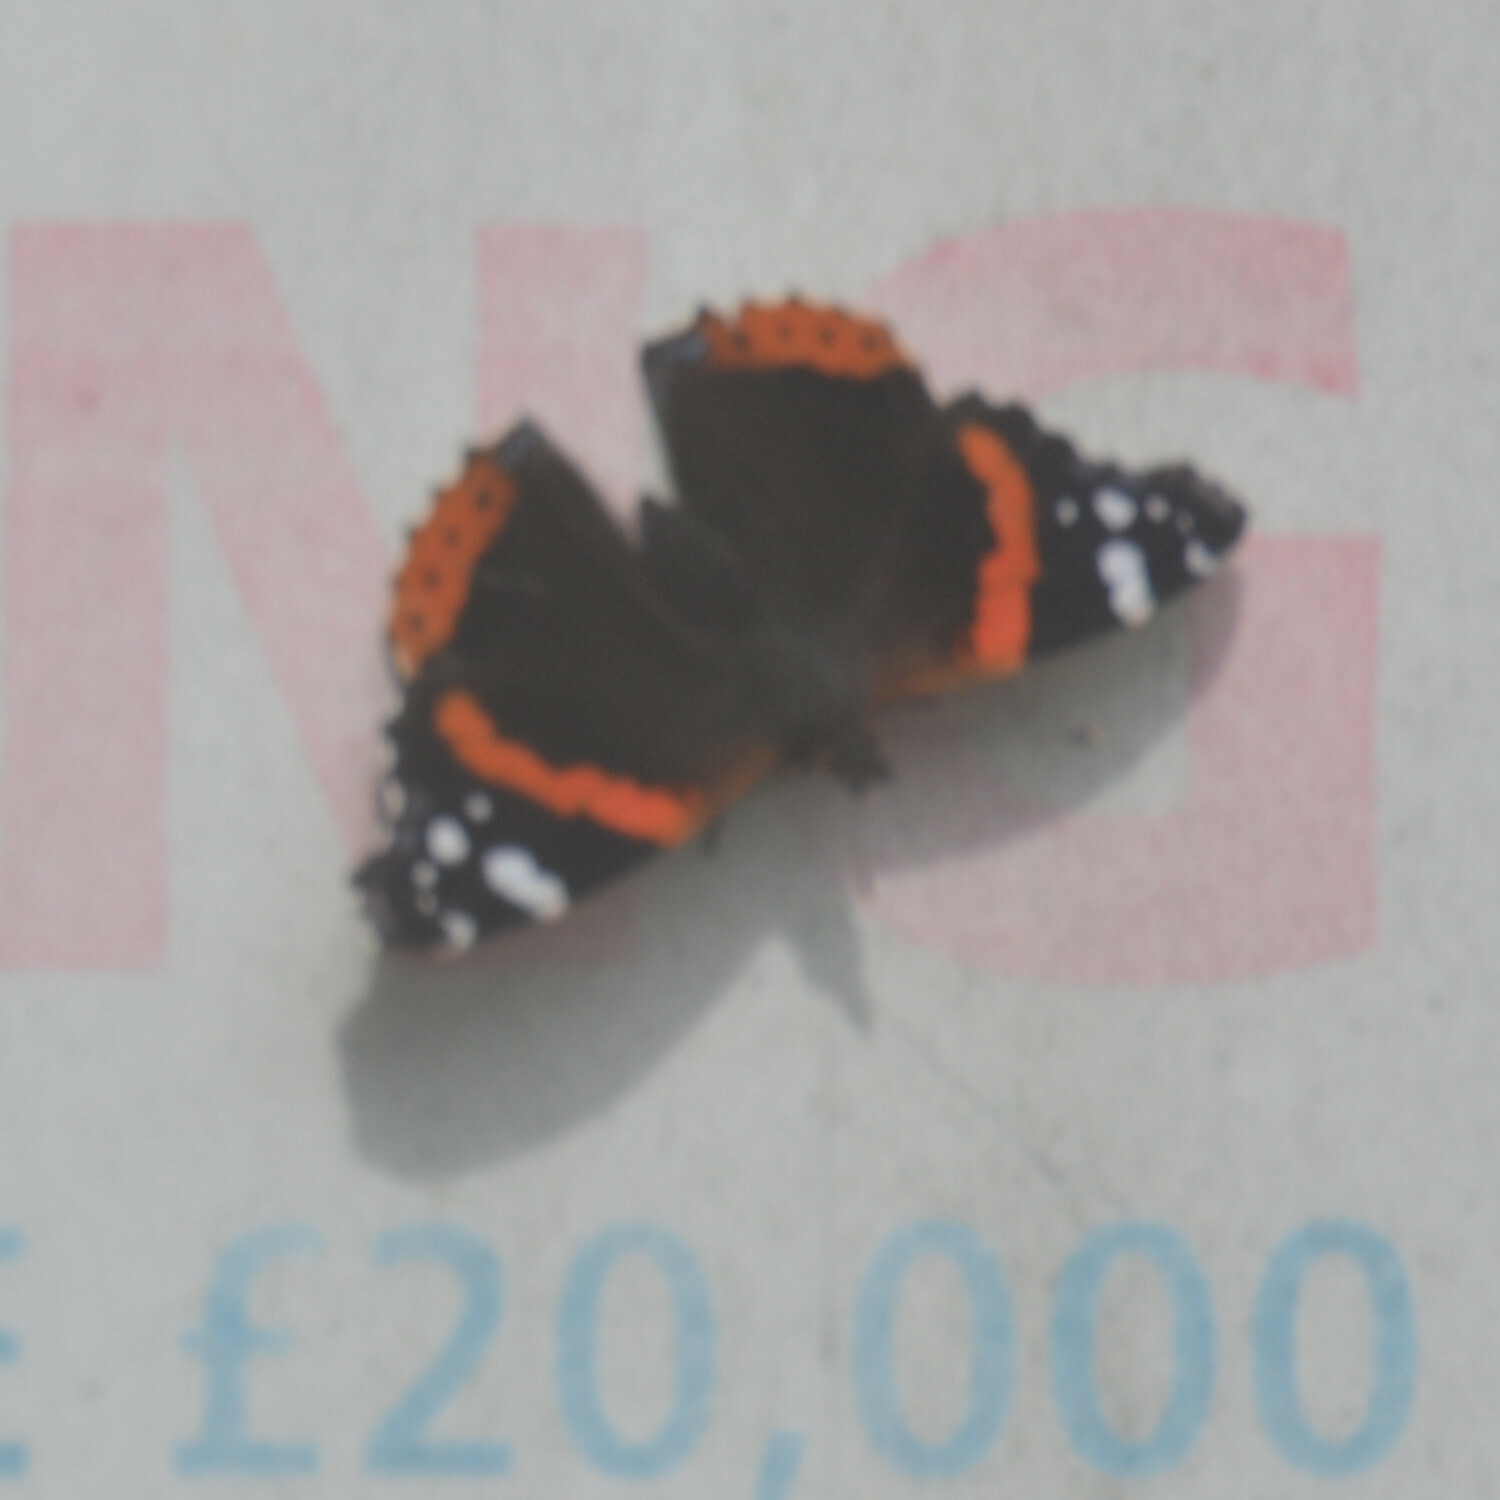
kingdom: Animalia
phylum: Arthropoda
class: Insecta
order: Lepidoptera
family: Nymphalidae
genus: Vanessa
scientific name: Vanessa atalanta
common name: Red admiral
